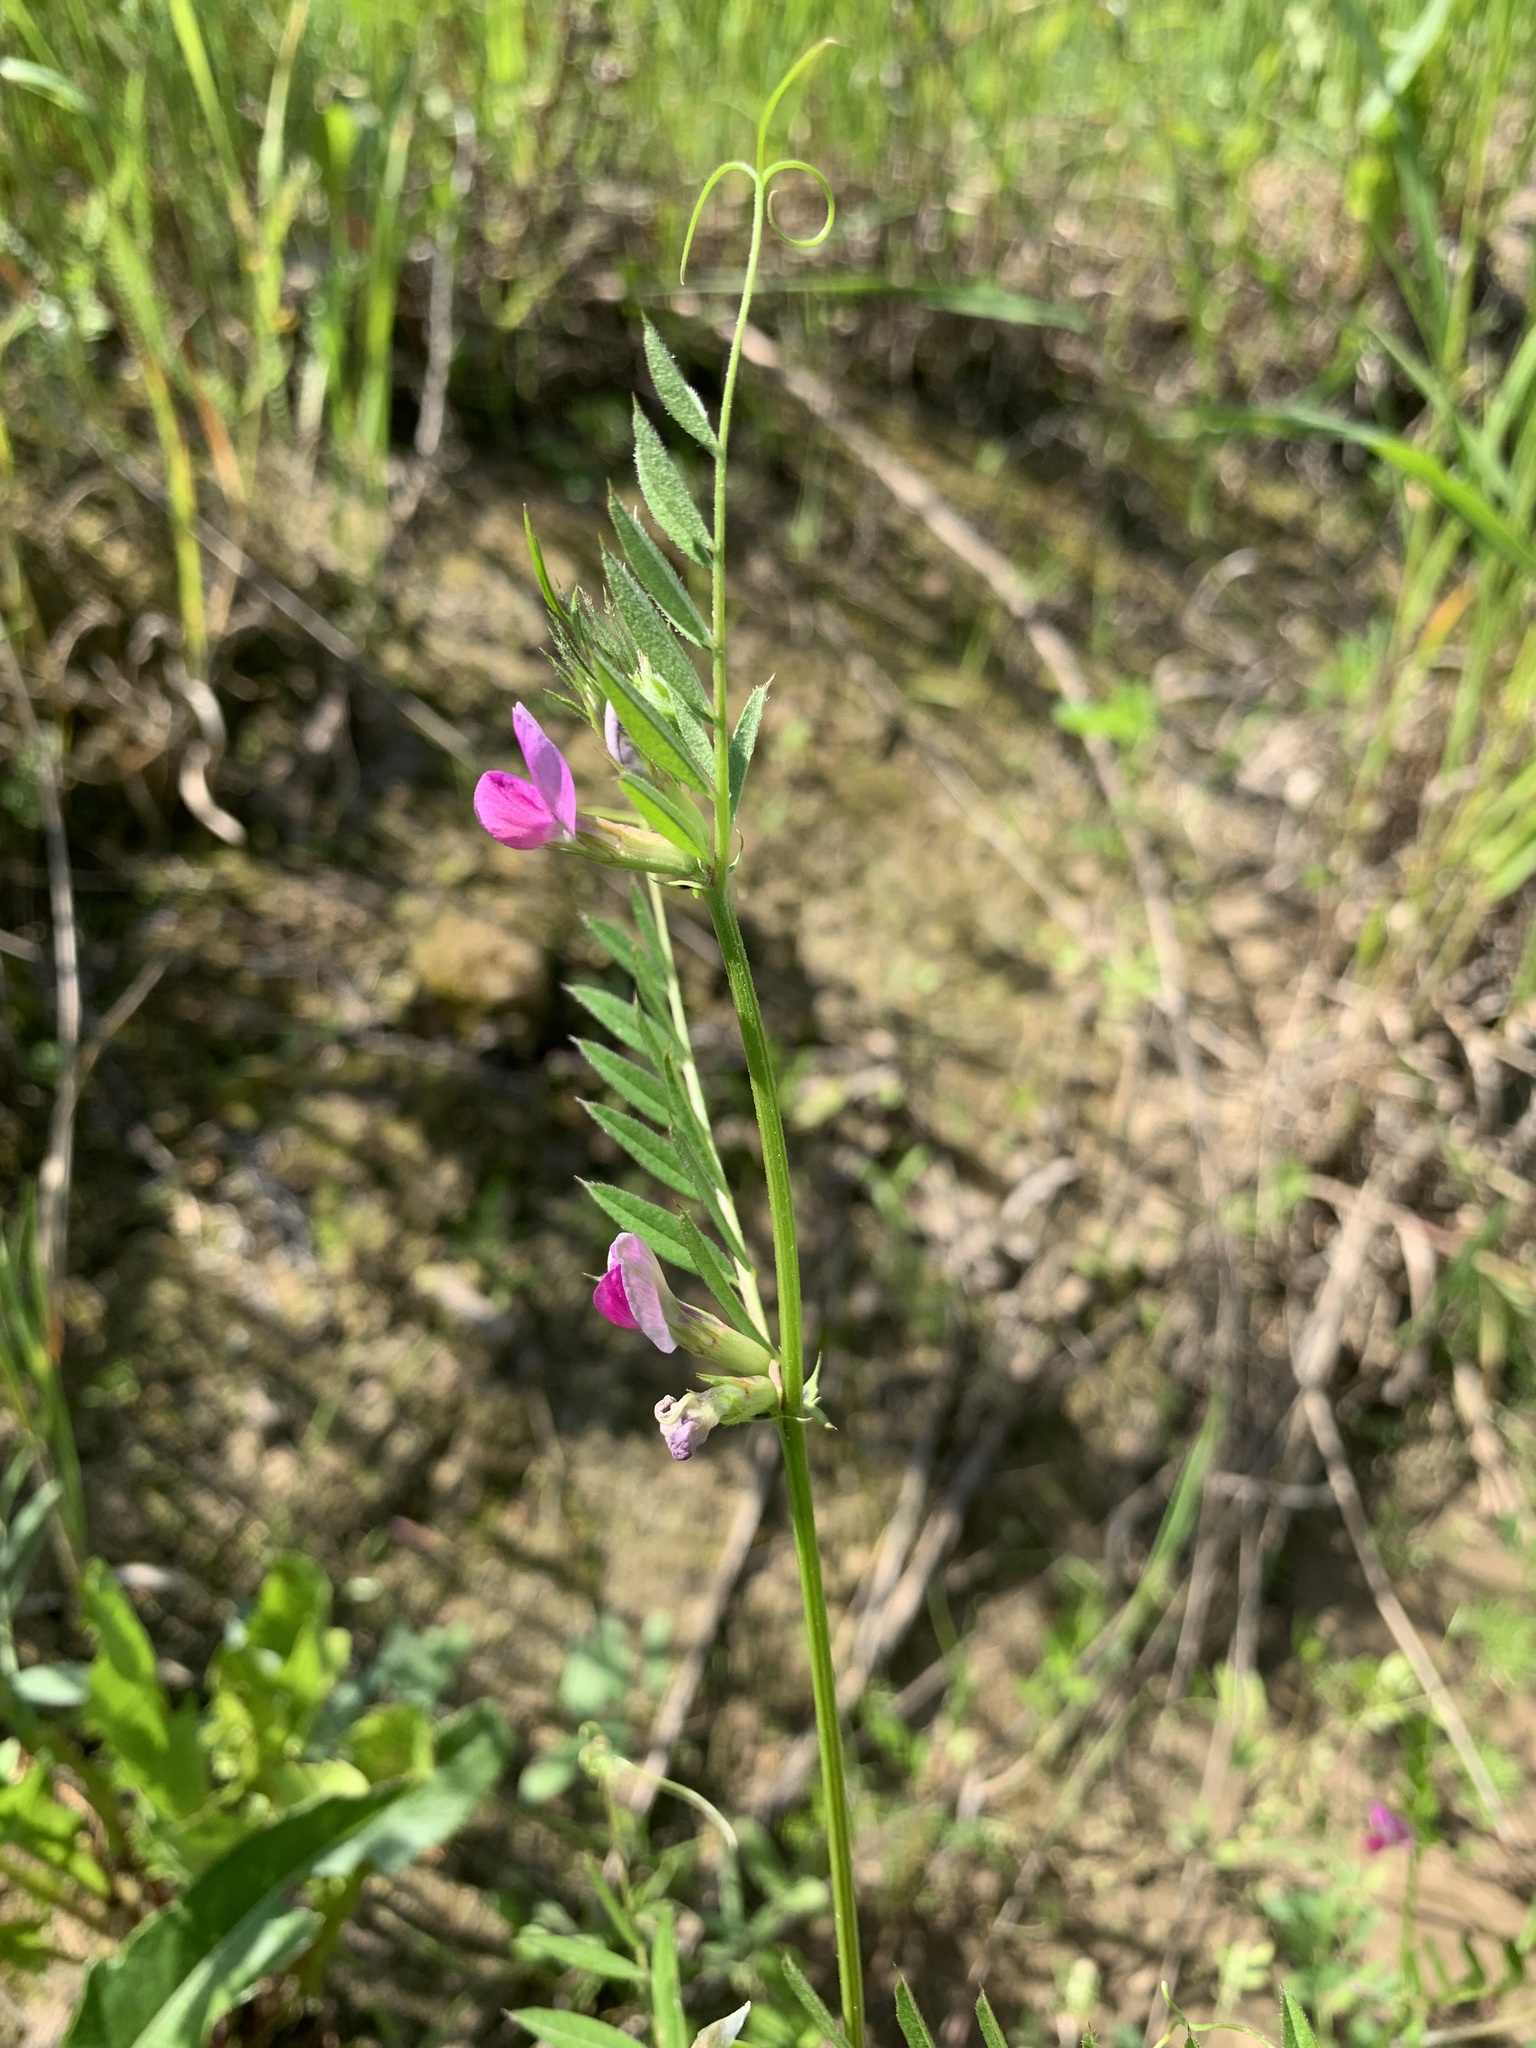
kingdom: Plantae
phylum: Tracheophyta
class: Magnoliopsida
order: Fabales
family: Fabaceae
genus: Vicia
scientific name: Vicia sativa
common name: Garden vetch
